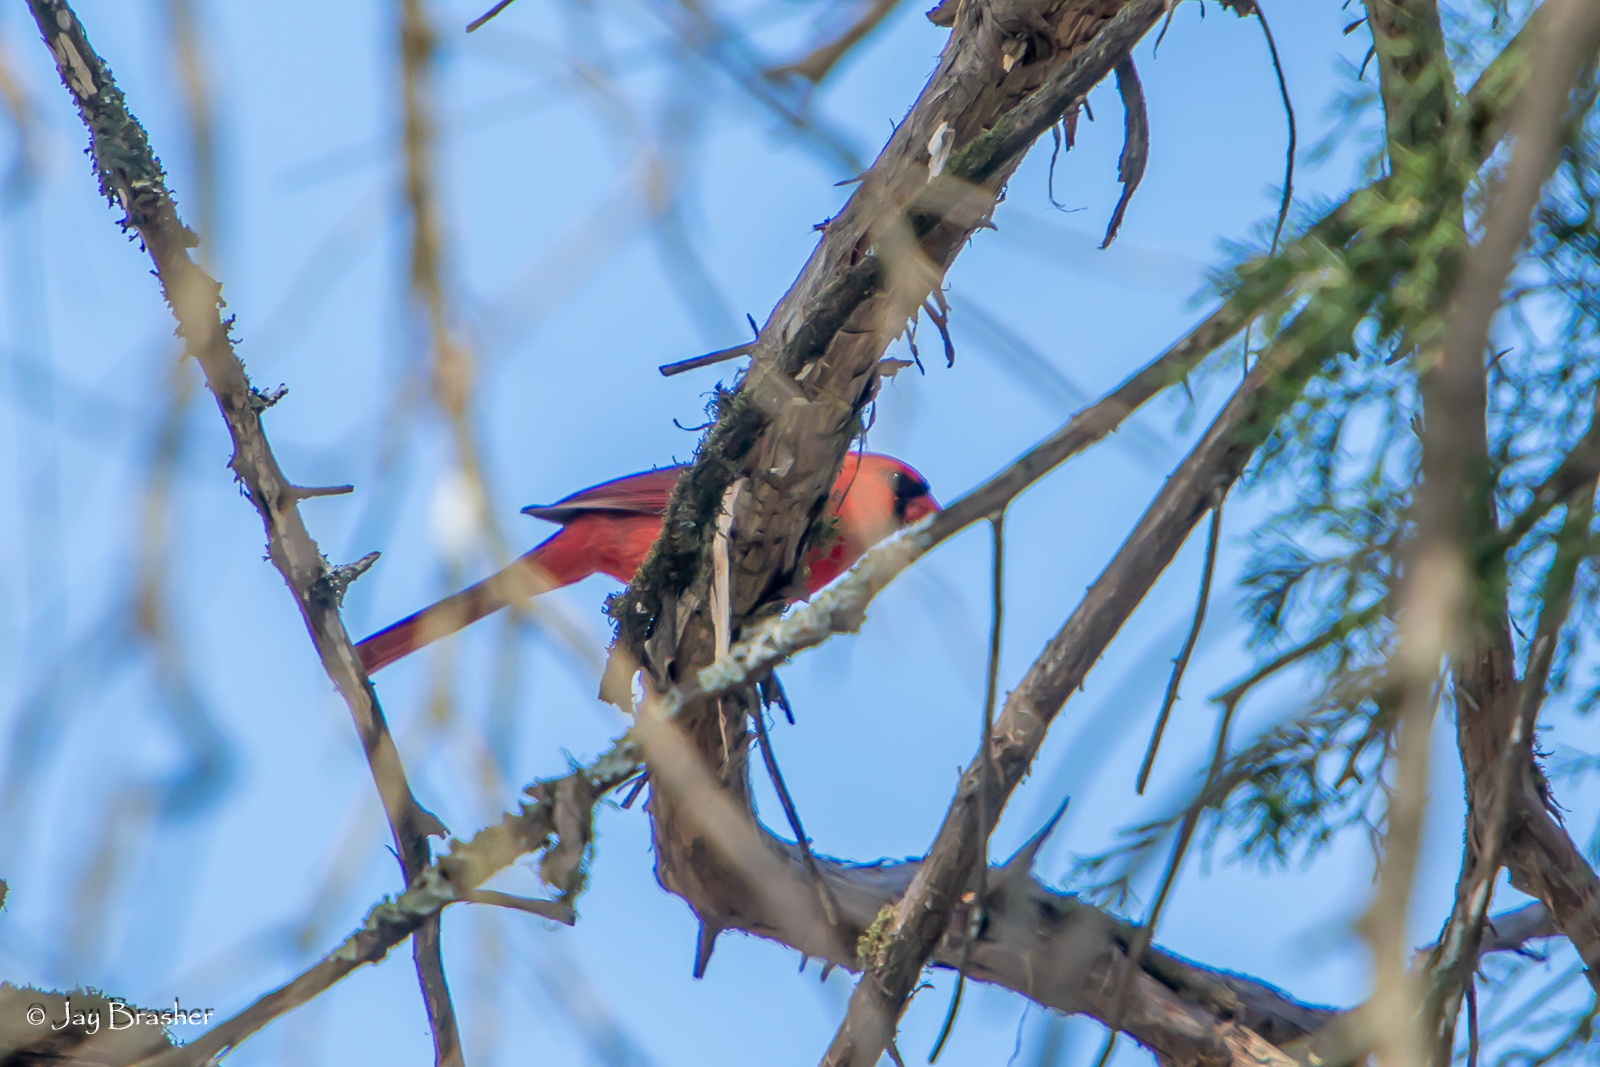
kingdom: Animalia
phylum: Chordata
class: Aves
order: Passeriformes
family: Cardinalidae
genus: Cardinalis
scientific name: Cardinalis cardinalis
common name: Northern cardinal
